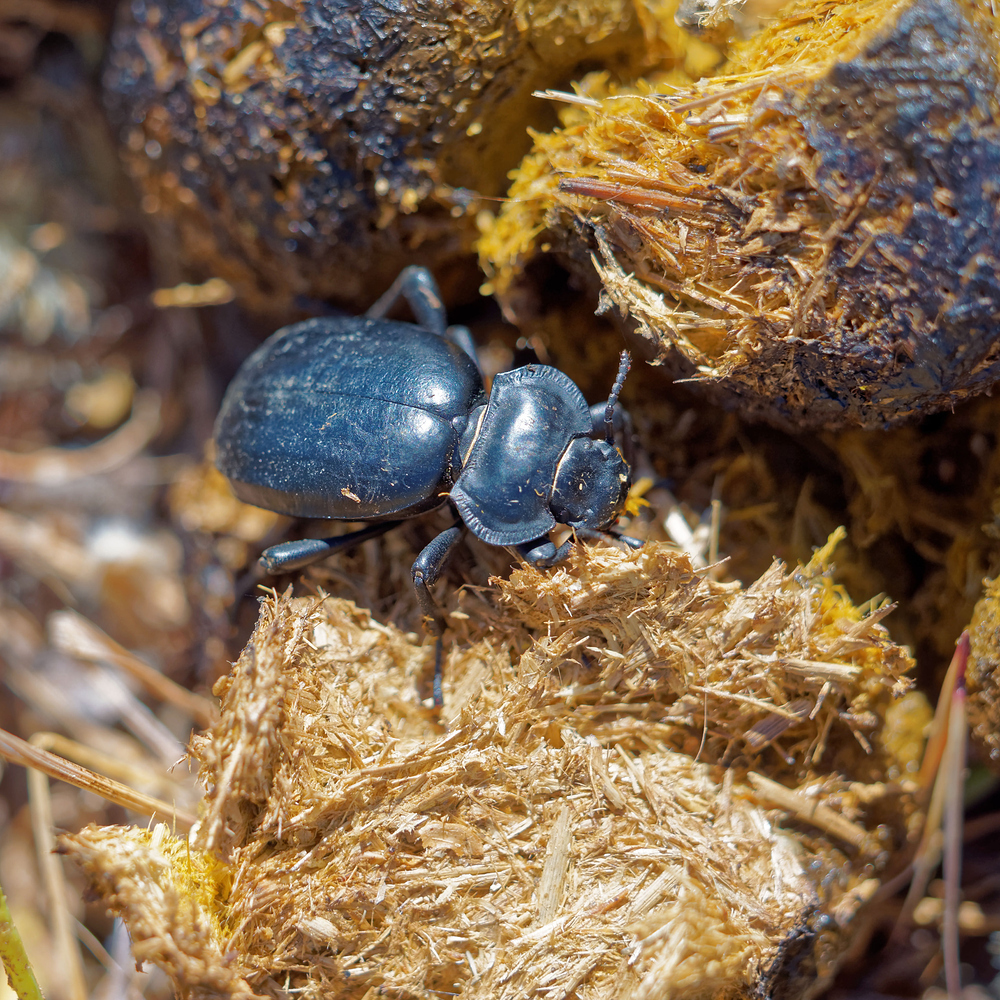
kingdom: Animalia
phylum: Arthropoda
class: Insecta
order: Coleoptera
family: Tenebrionidae
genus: Morica
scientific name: Morica planata
